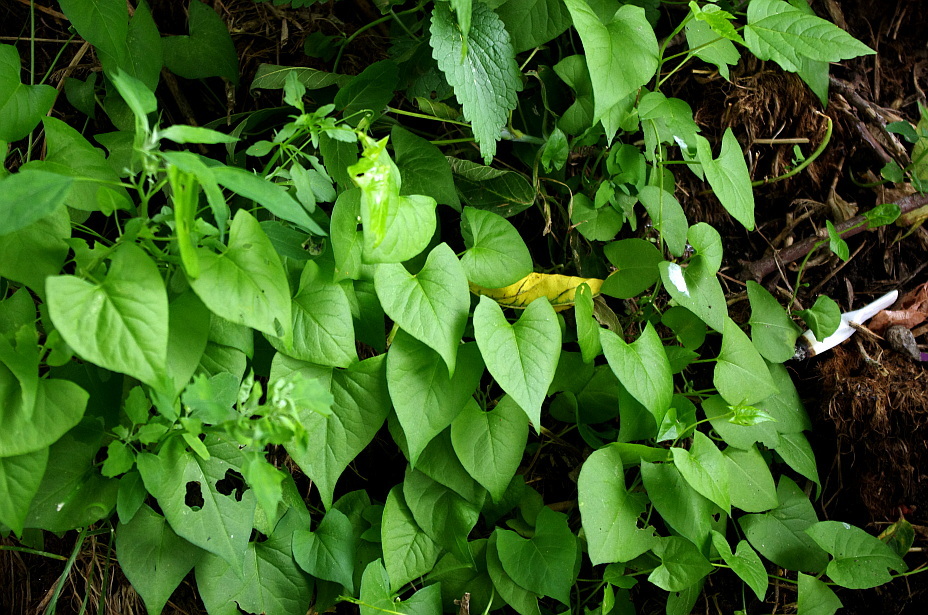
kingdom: Plantae
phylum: Tracheophyta
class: Magnoliopsida
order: Caryophyllales
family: Polygonaceae
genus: Fallopia
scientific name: Fallopia convolvulus
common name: Black bindweed
